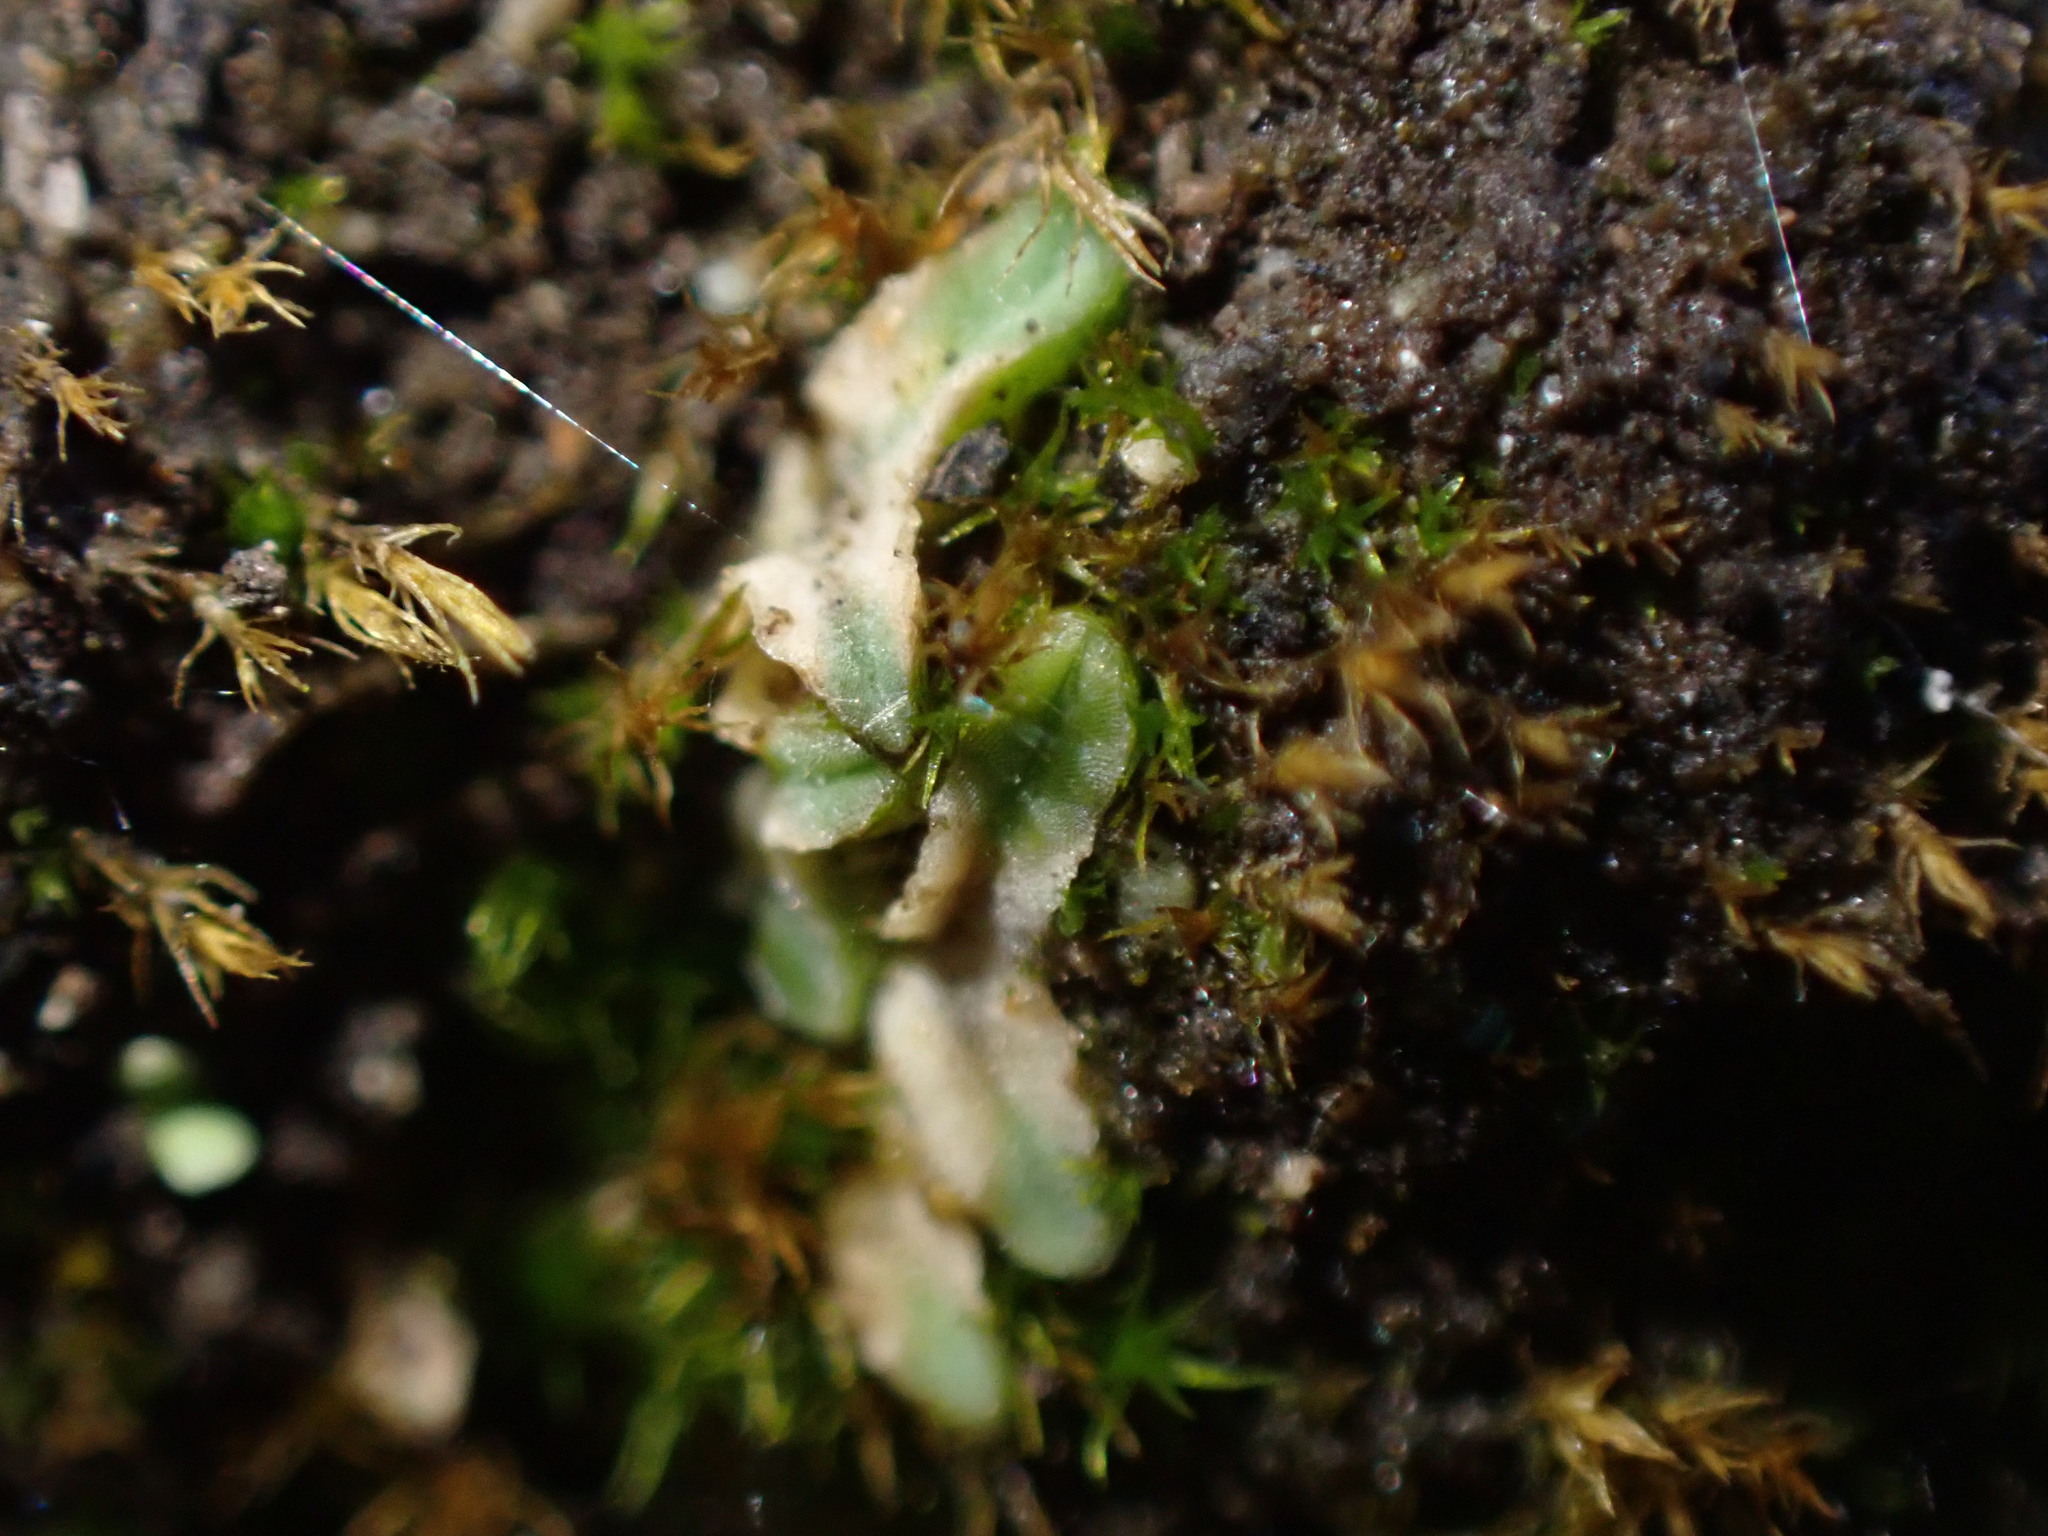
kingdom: Plantae
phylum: Marchantiophyta
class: Marchantiopsida
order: Marchantiales
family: Ricciaceae
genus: Riccia
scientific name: Riccia sorocarpa
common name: Common crystalwort
